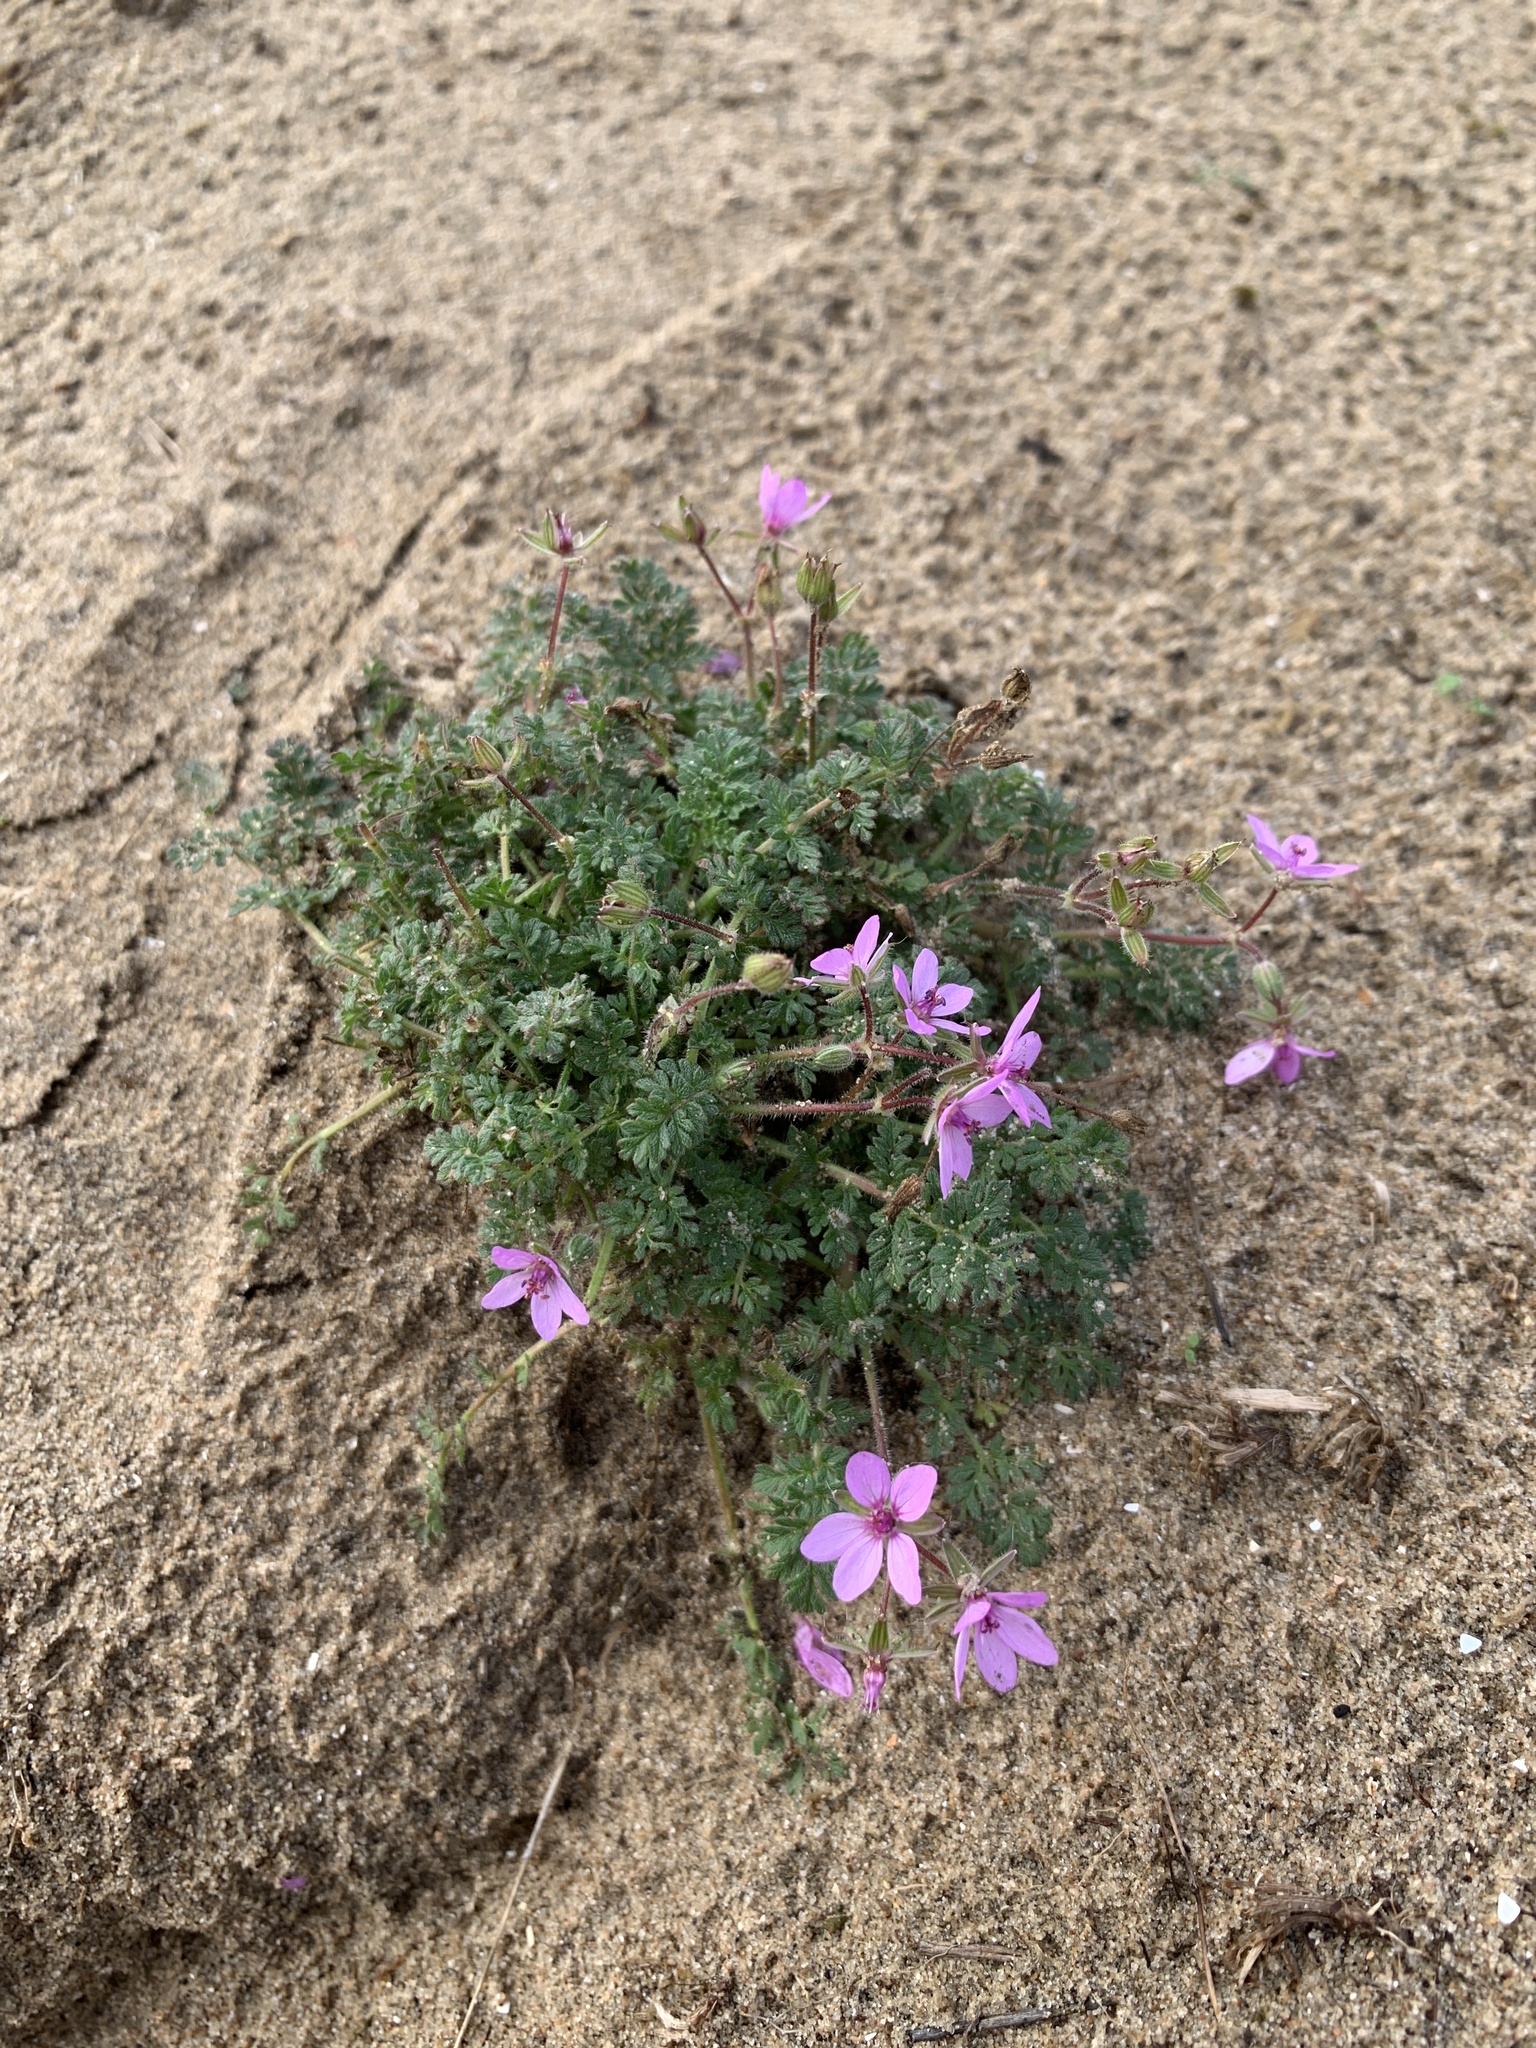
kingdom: Plantae
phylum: Tracheophyta
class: Magnoliopsida
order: Geraniales
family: Geraniaceae
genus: Erodium
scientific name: Erodium cicutarium
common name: Common stork's-bill
